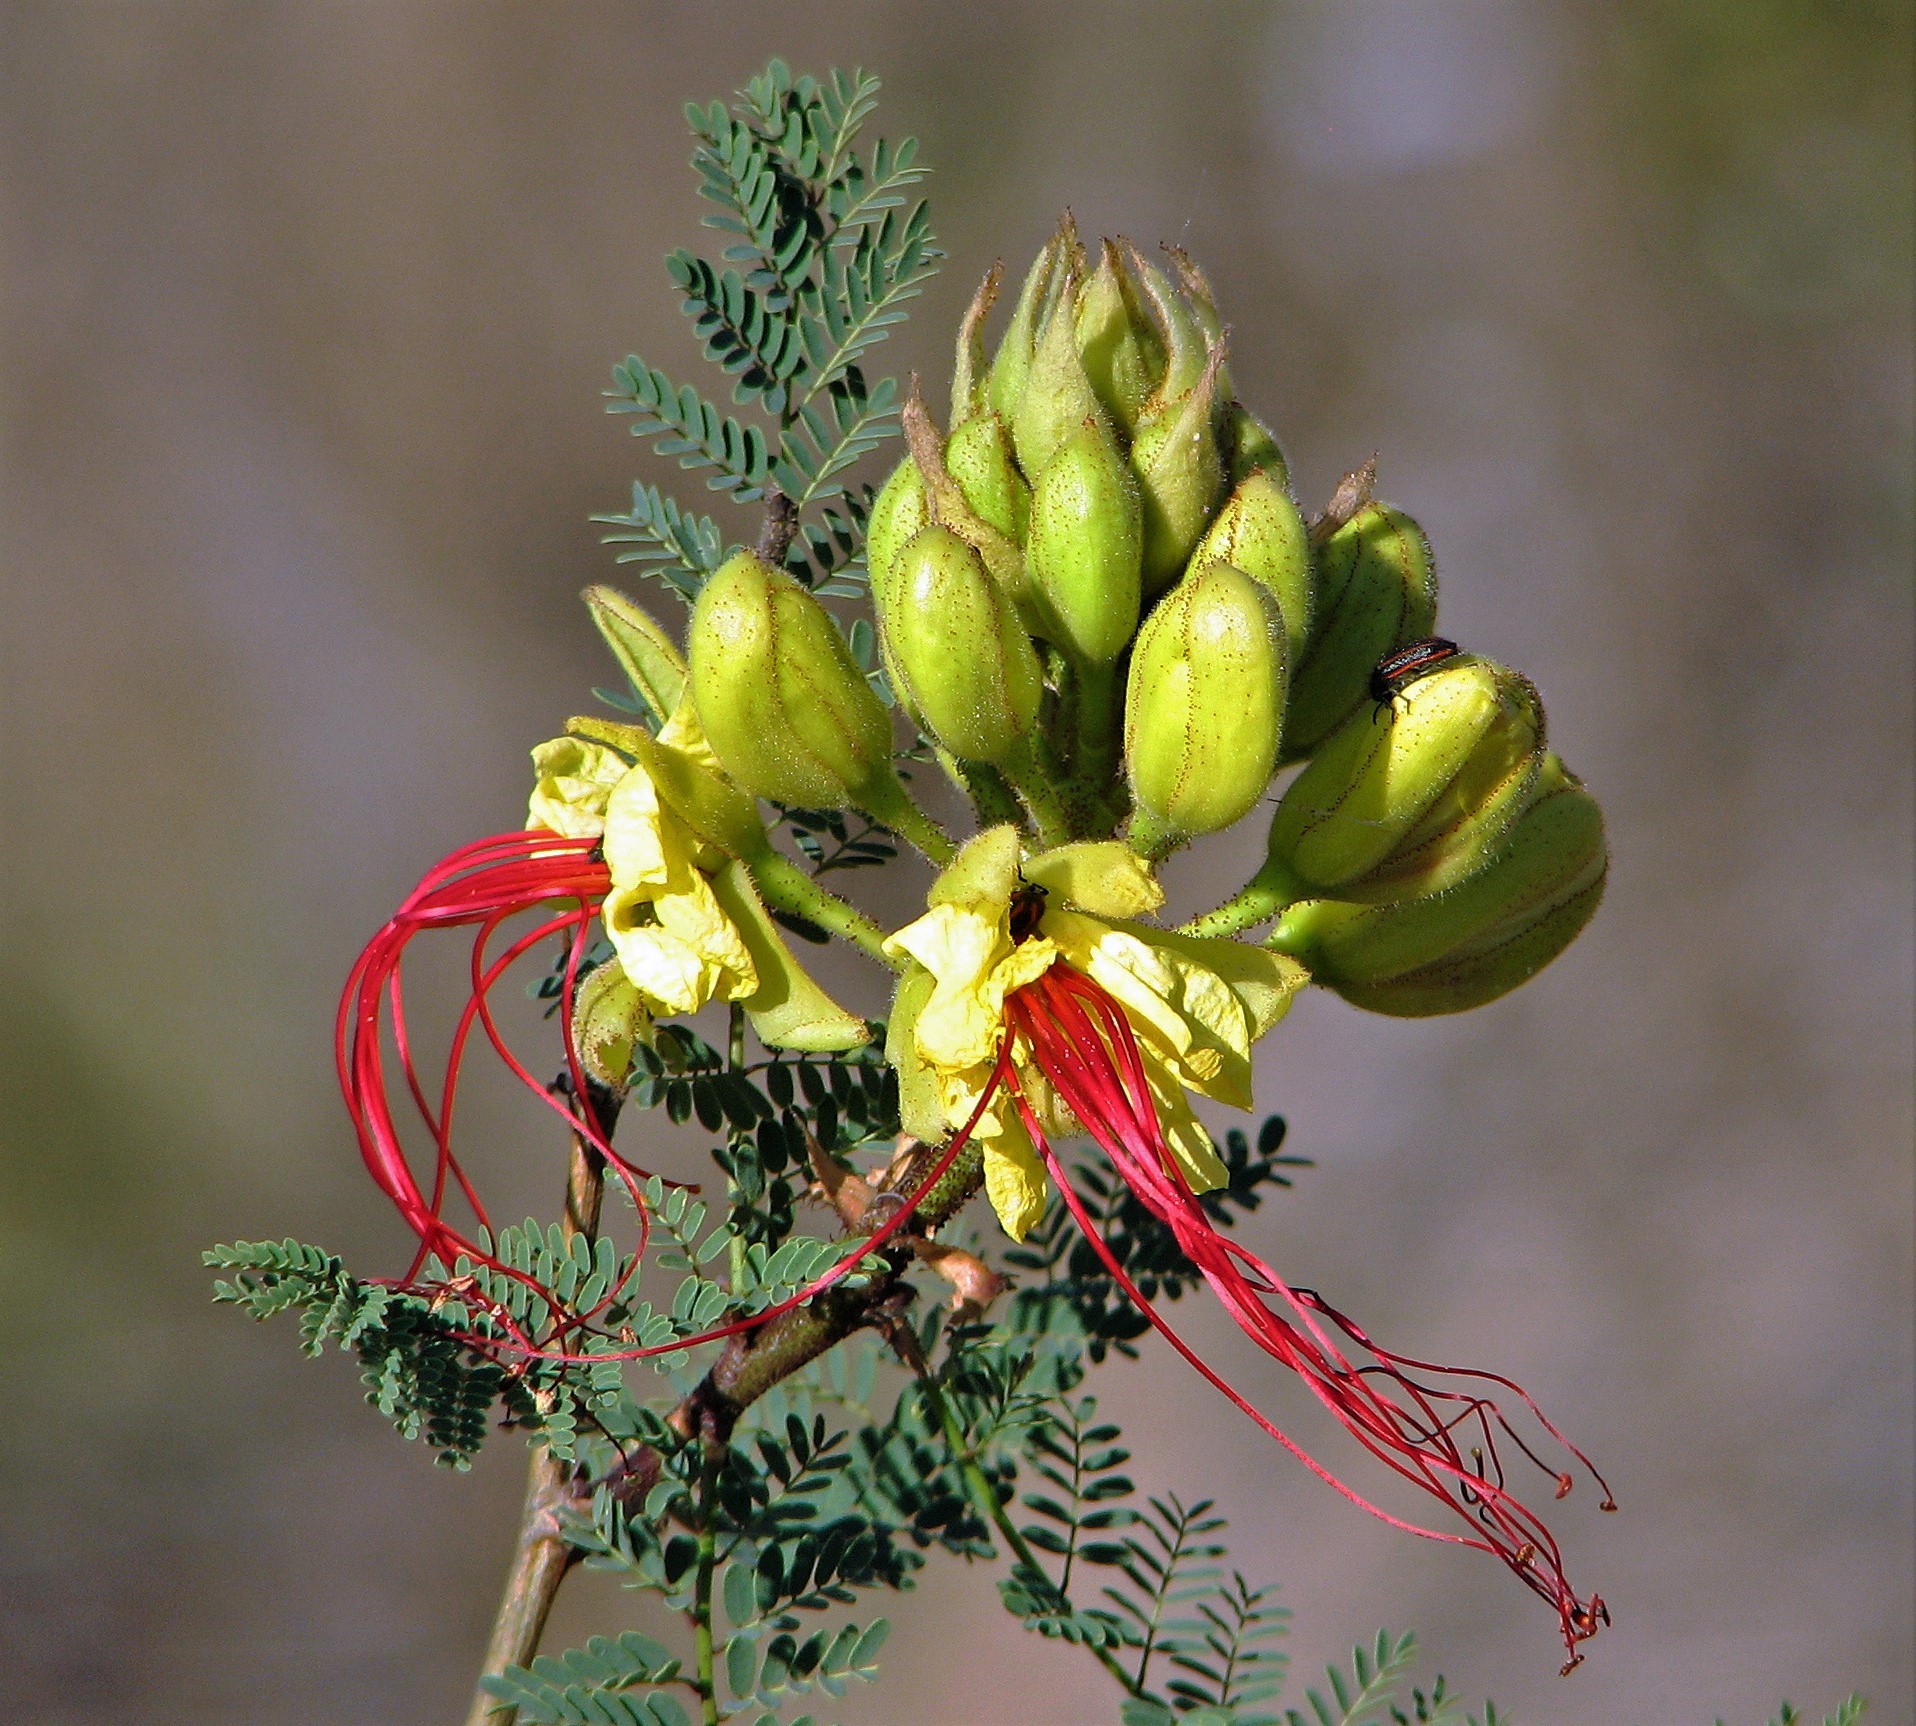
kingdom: Plantae
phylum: Tracheophyta
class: Magnoliopsida
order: Fabales
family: Fabaceae
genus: Erythrostemon
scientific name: Erythrostemon gilliesii
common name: Bird-of-paradise shrub
